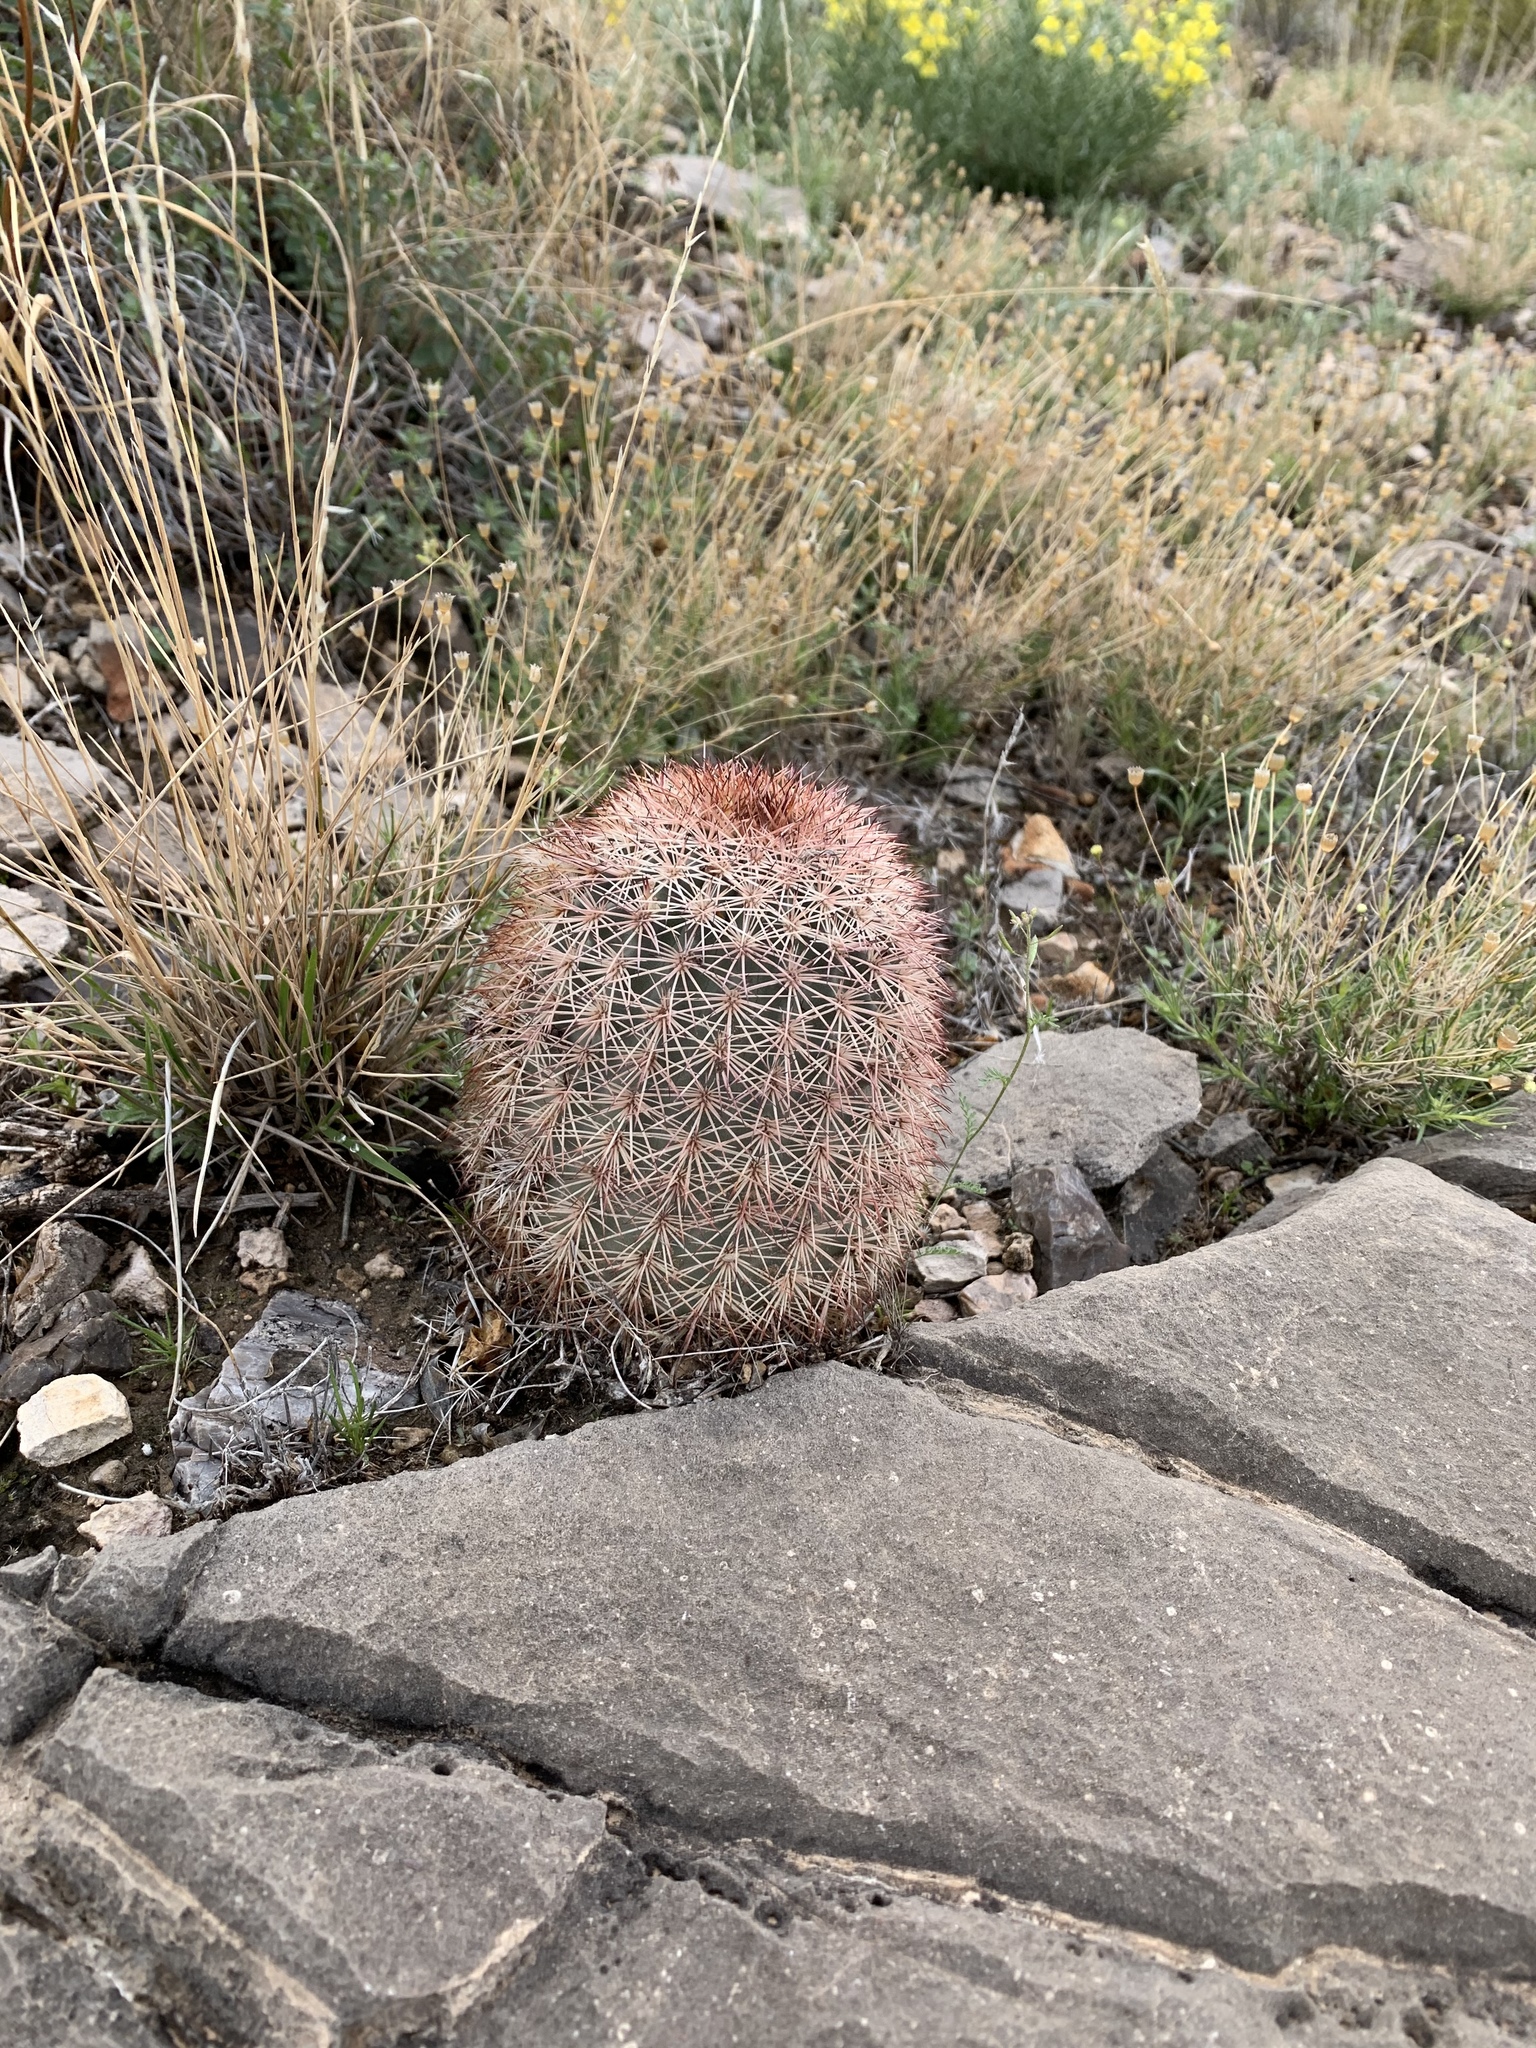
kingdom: Plantae
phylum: Tracheophyta
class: Magnoliopsida
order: Caryophyllales
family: Cactaceae
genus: Echinocereus
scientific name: Echinocereus dasyacanthus
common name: Spiny hedgehog cactus
